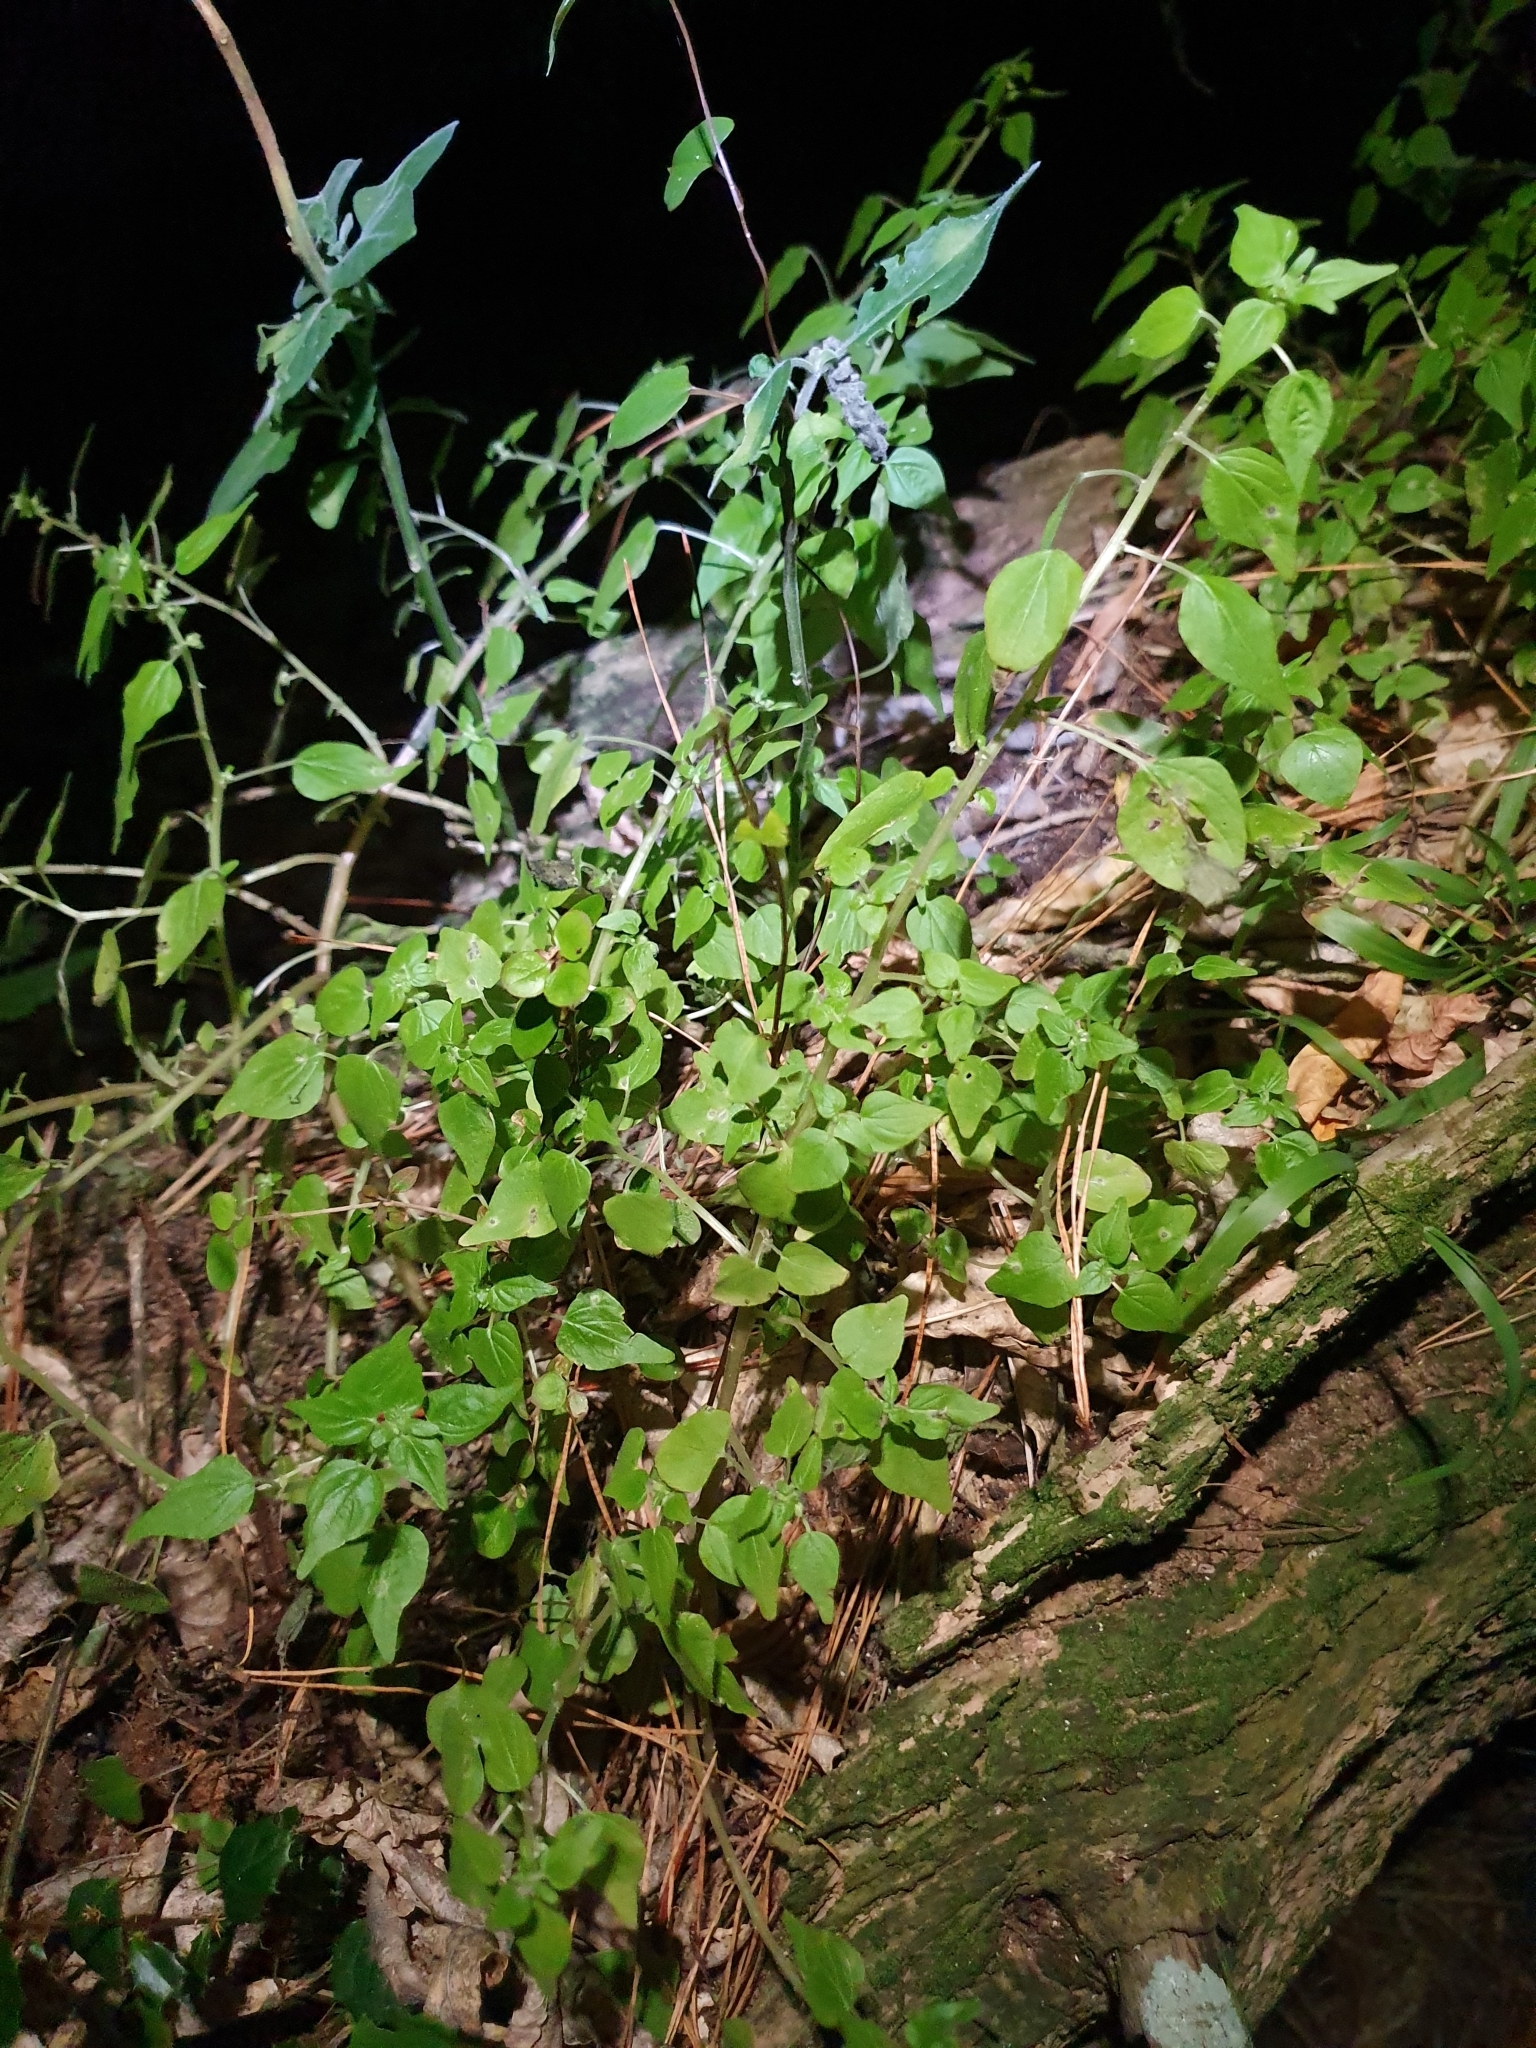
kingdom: Plantae
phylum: Tracheophyta
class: Magnoliopsida
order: Rosales
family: Urticaceae
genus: Parietaria
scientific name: Parietaria debilis
